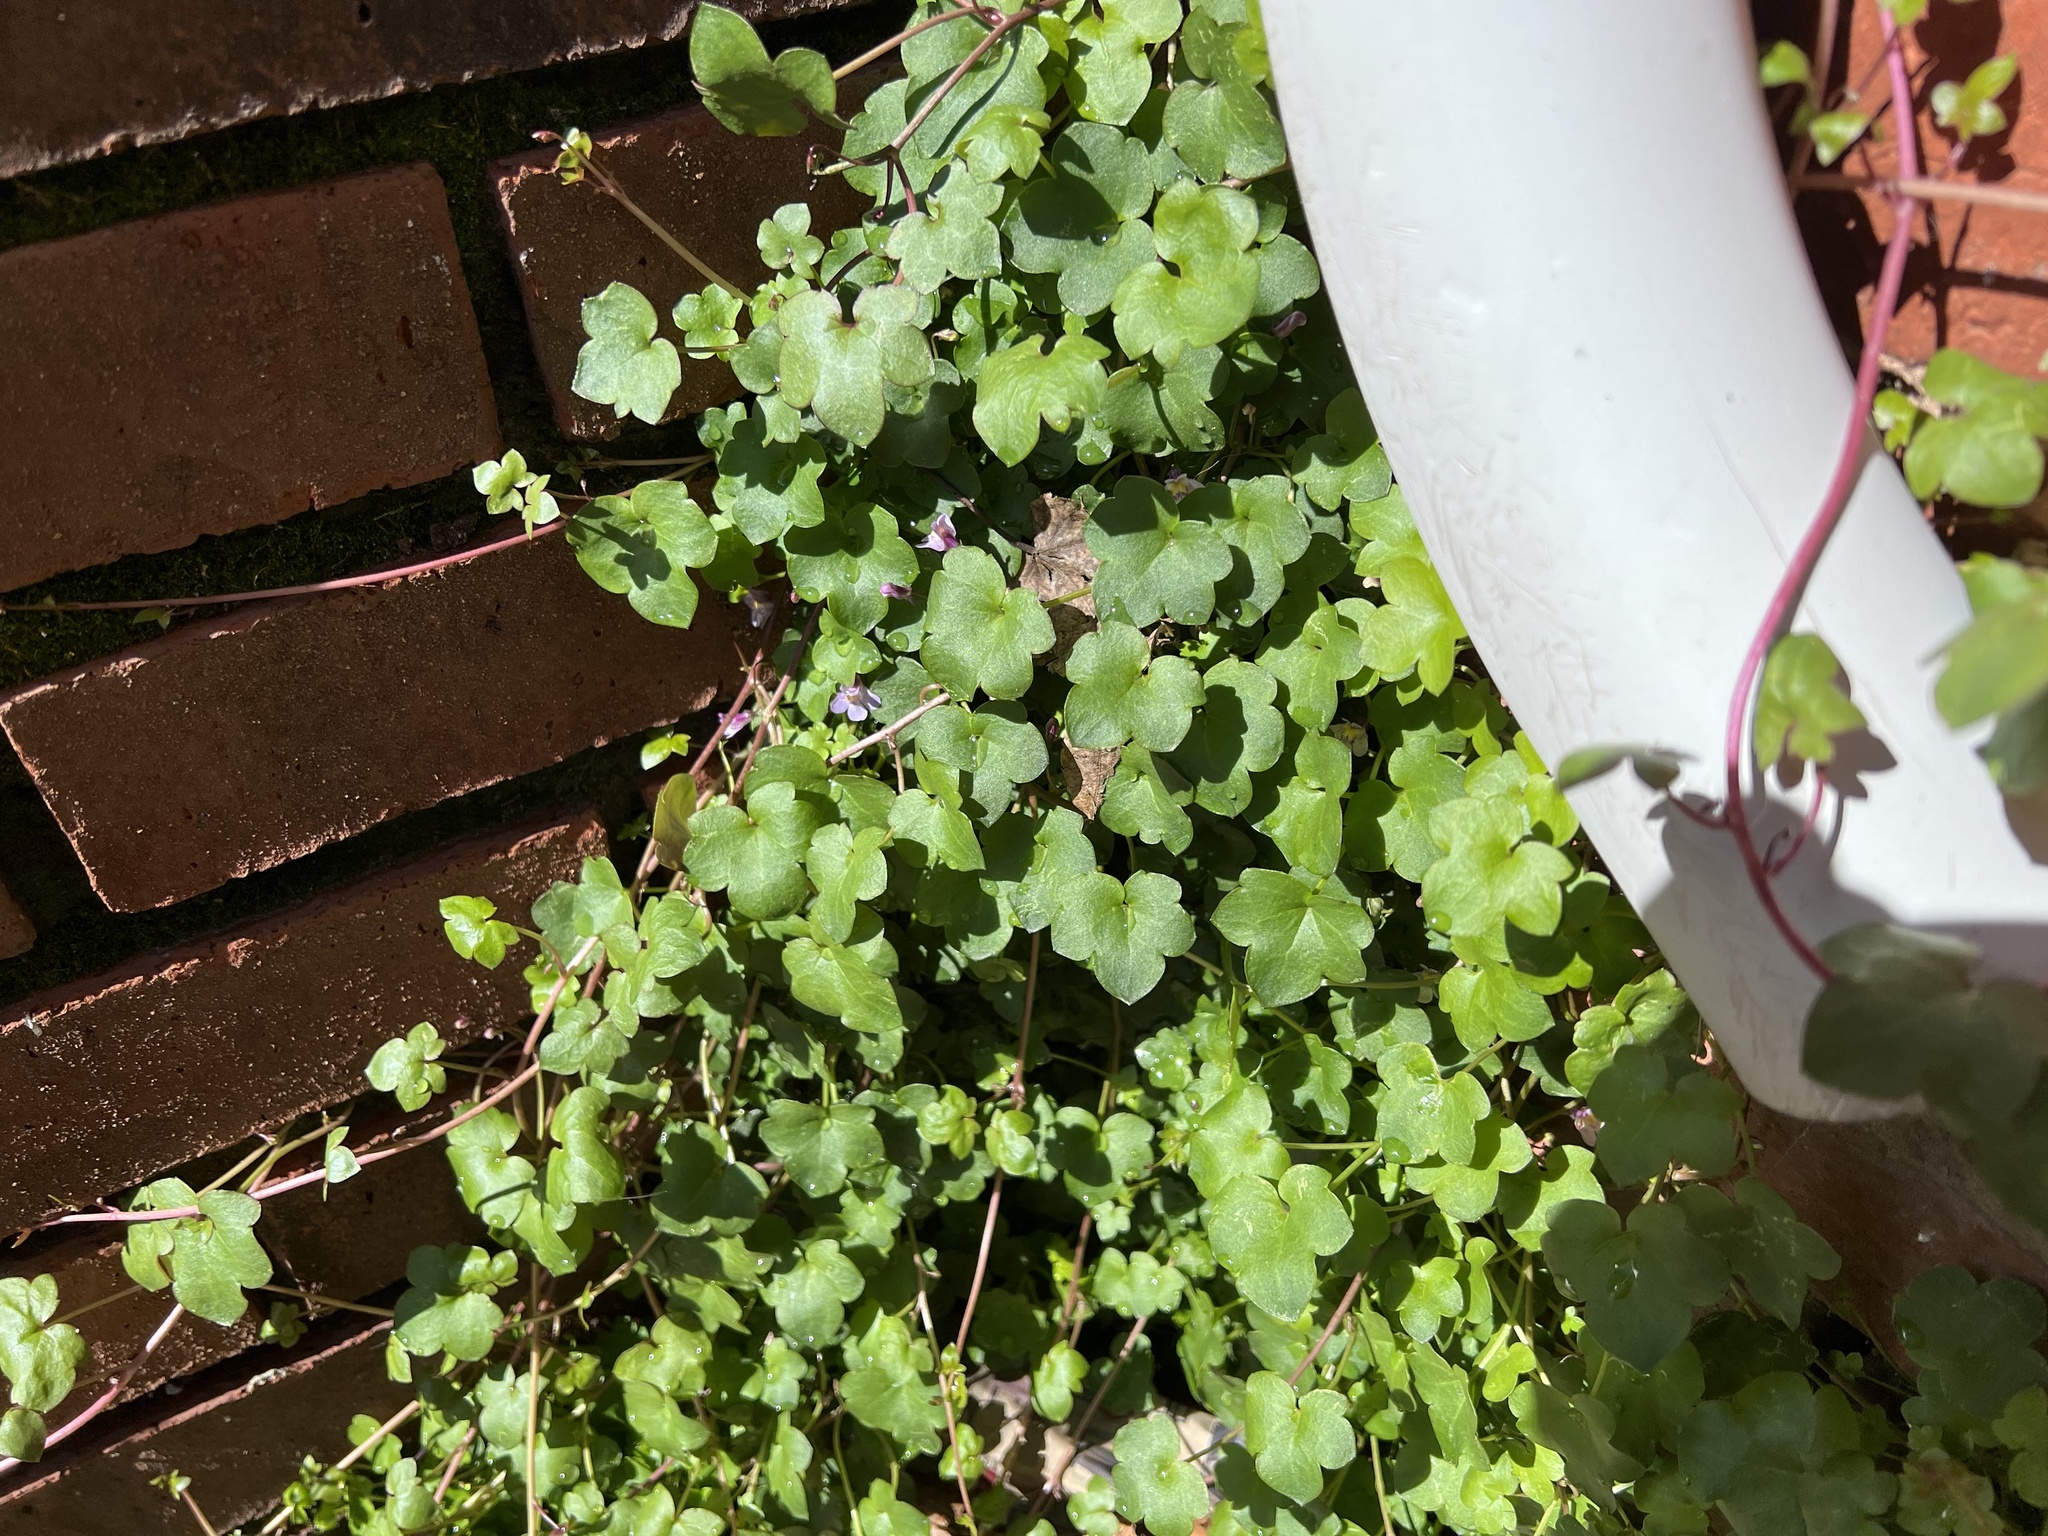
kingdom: Plantae
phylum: Tracheophyta
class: Magnoliopsida
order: Lamiales
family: Plantaginaceae
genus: Cymbalaria
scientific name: Cymbalaria muralis
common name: Ivy-leaved toadflax
